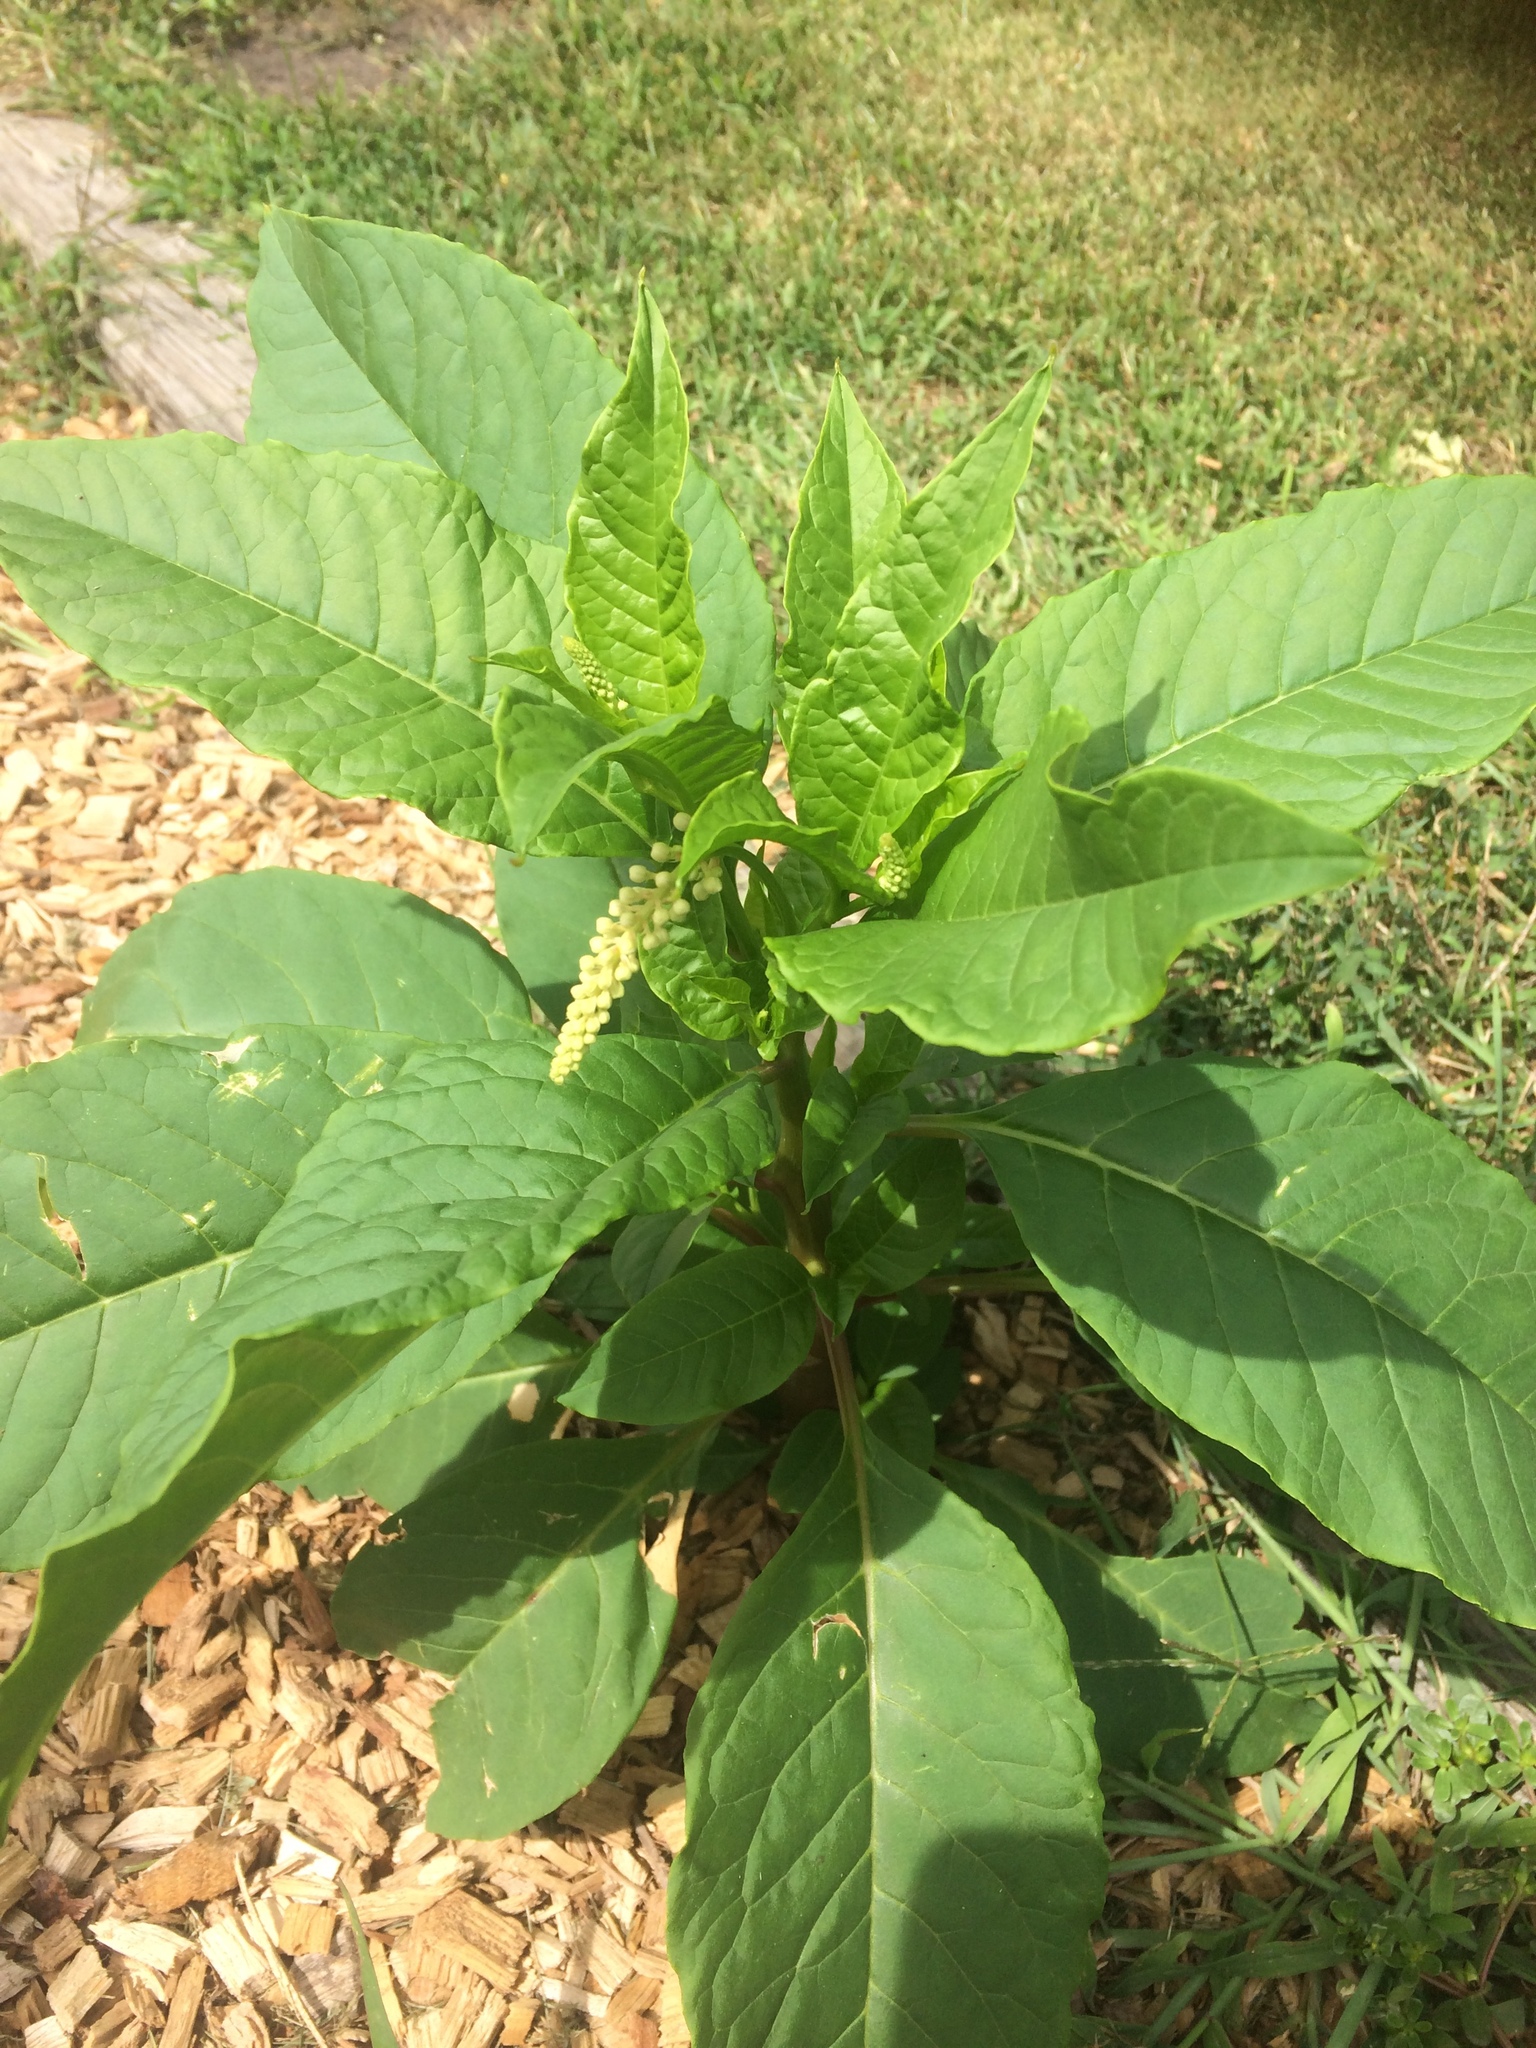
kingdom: Plantae
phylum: Tracheophyta
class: Magnoliopsida
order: Caryophyllales
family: Phytolaccaceae
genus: Phytolacca
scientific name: Phytolacca americana
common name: American pokeweed
